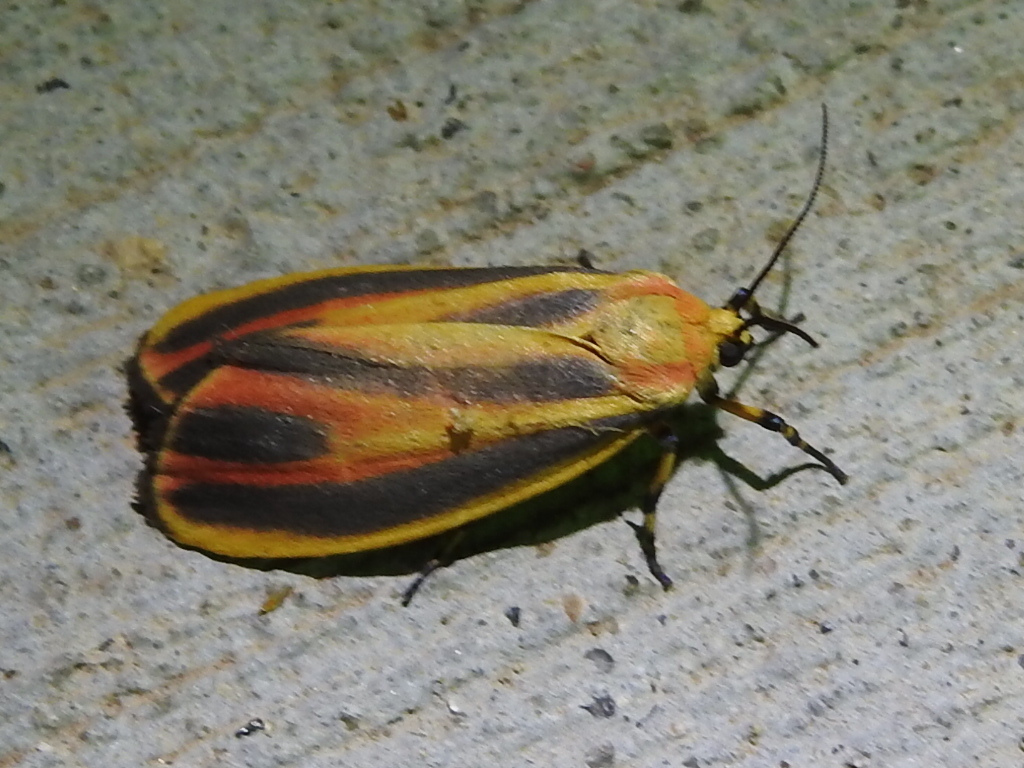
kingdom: Animalia
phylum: Arthropoda
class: Insecta
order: Lepidoptera
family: Erebidae
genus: Hypoprepia
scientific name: Hypoprepia fucosa
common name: Painted lichen moth
